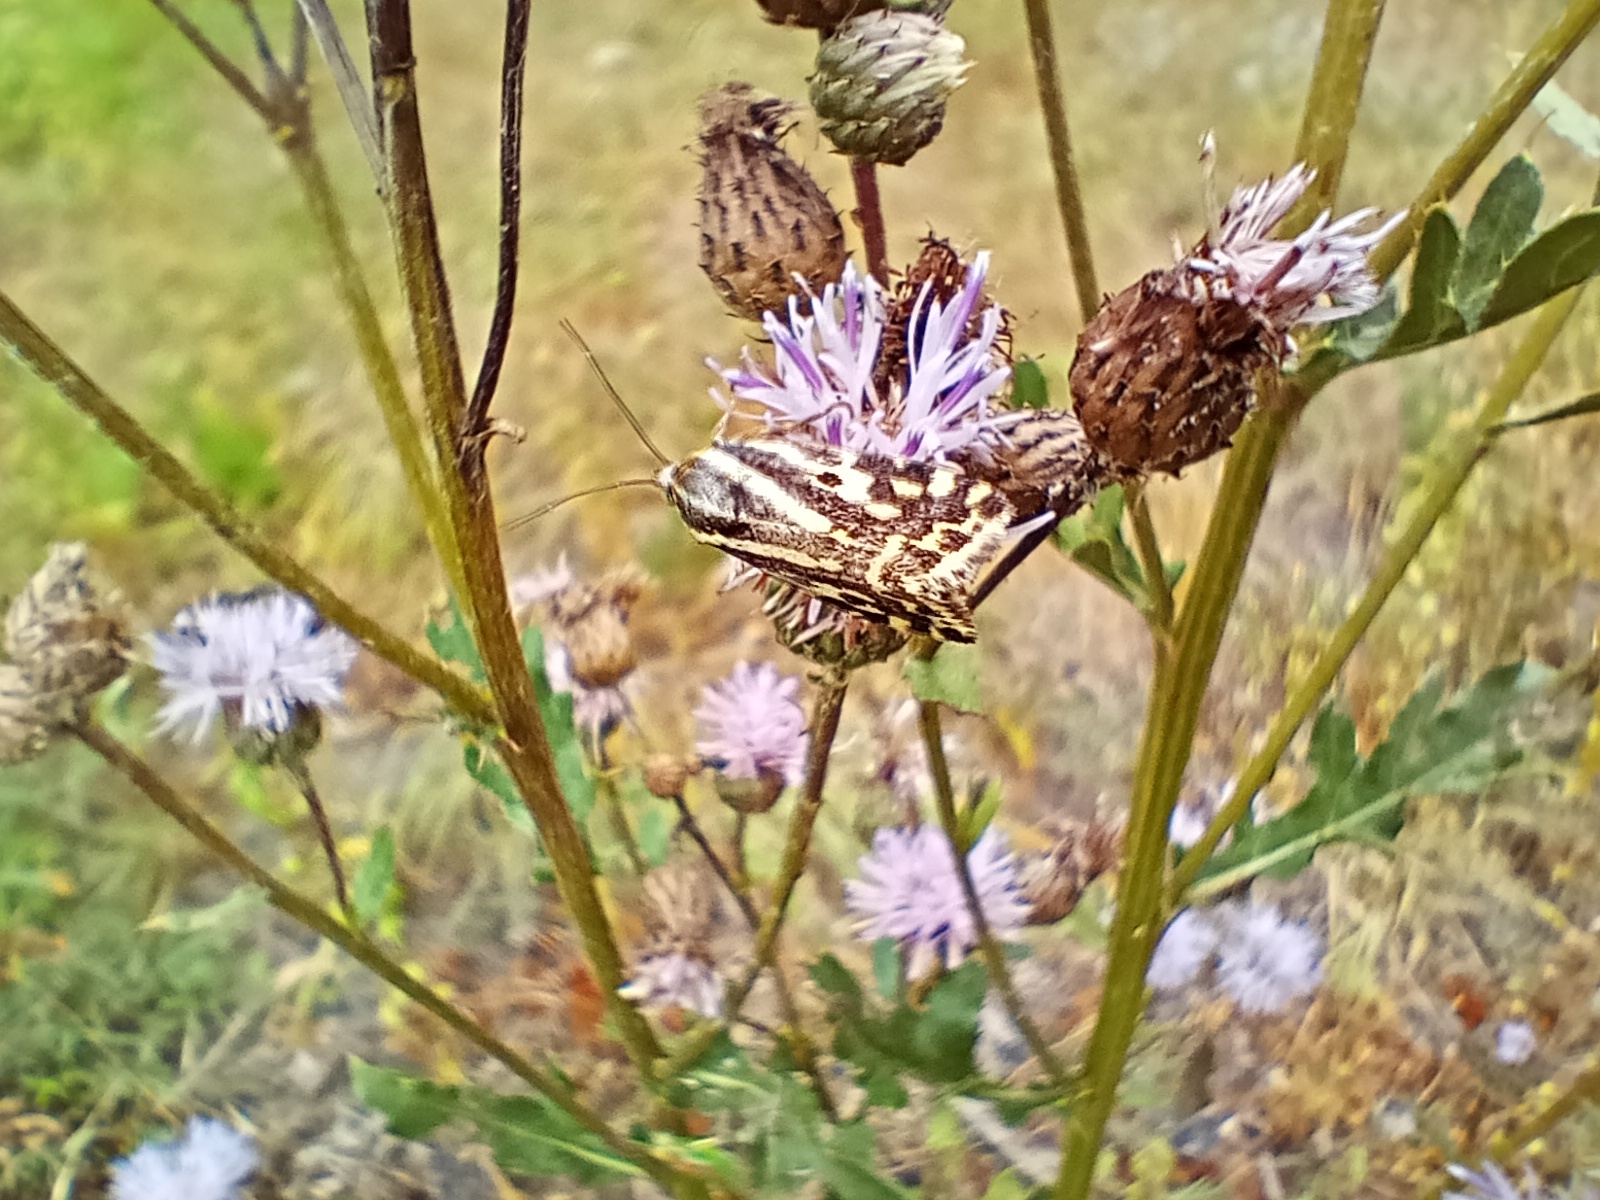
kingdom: Animalia
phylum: Arthropoda
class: Insecta
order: Lepidoptera
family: Noctuidae
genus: Acontia
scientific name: Acontia trabealis
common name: Spotted sulphur
